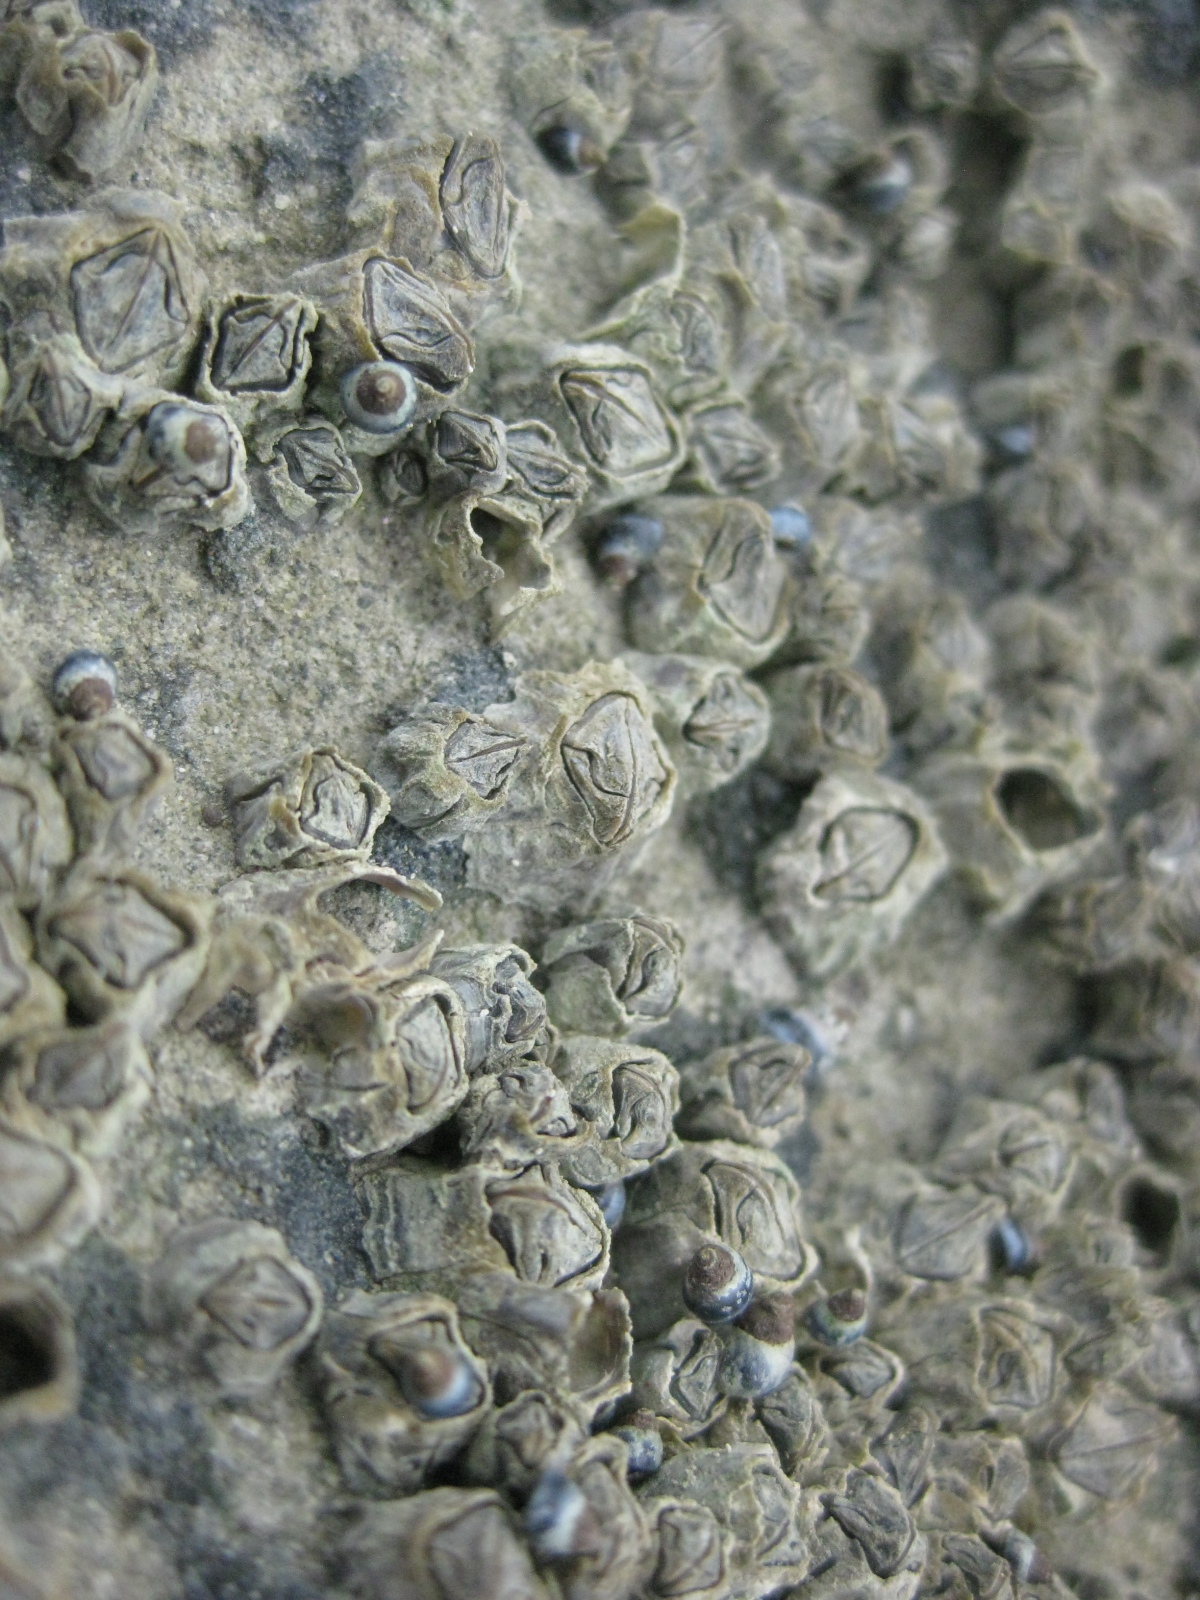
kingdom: Animalia
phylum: Arthropoda
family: Elminiidae
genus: Austrominius
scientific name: Austrominius modestus
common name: Australasian barnacle
